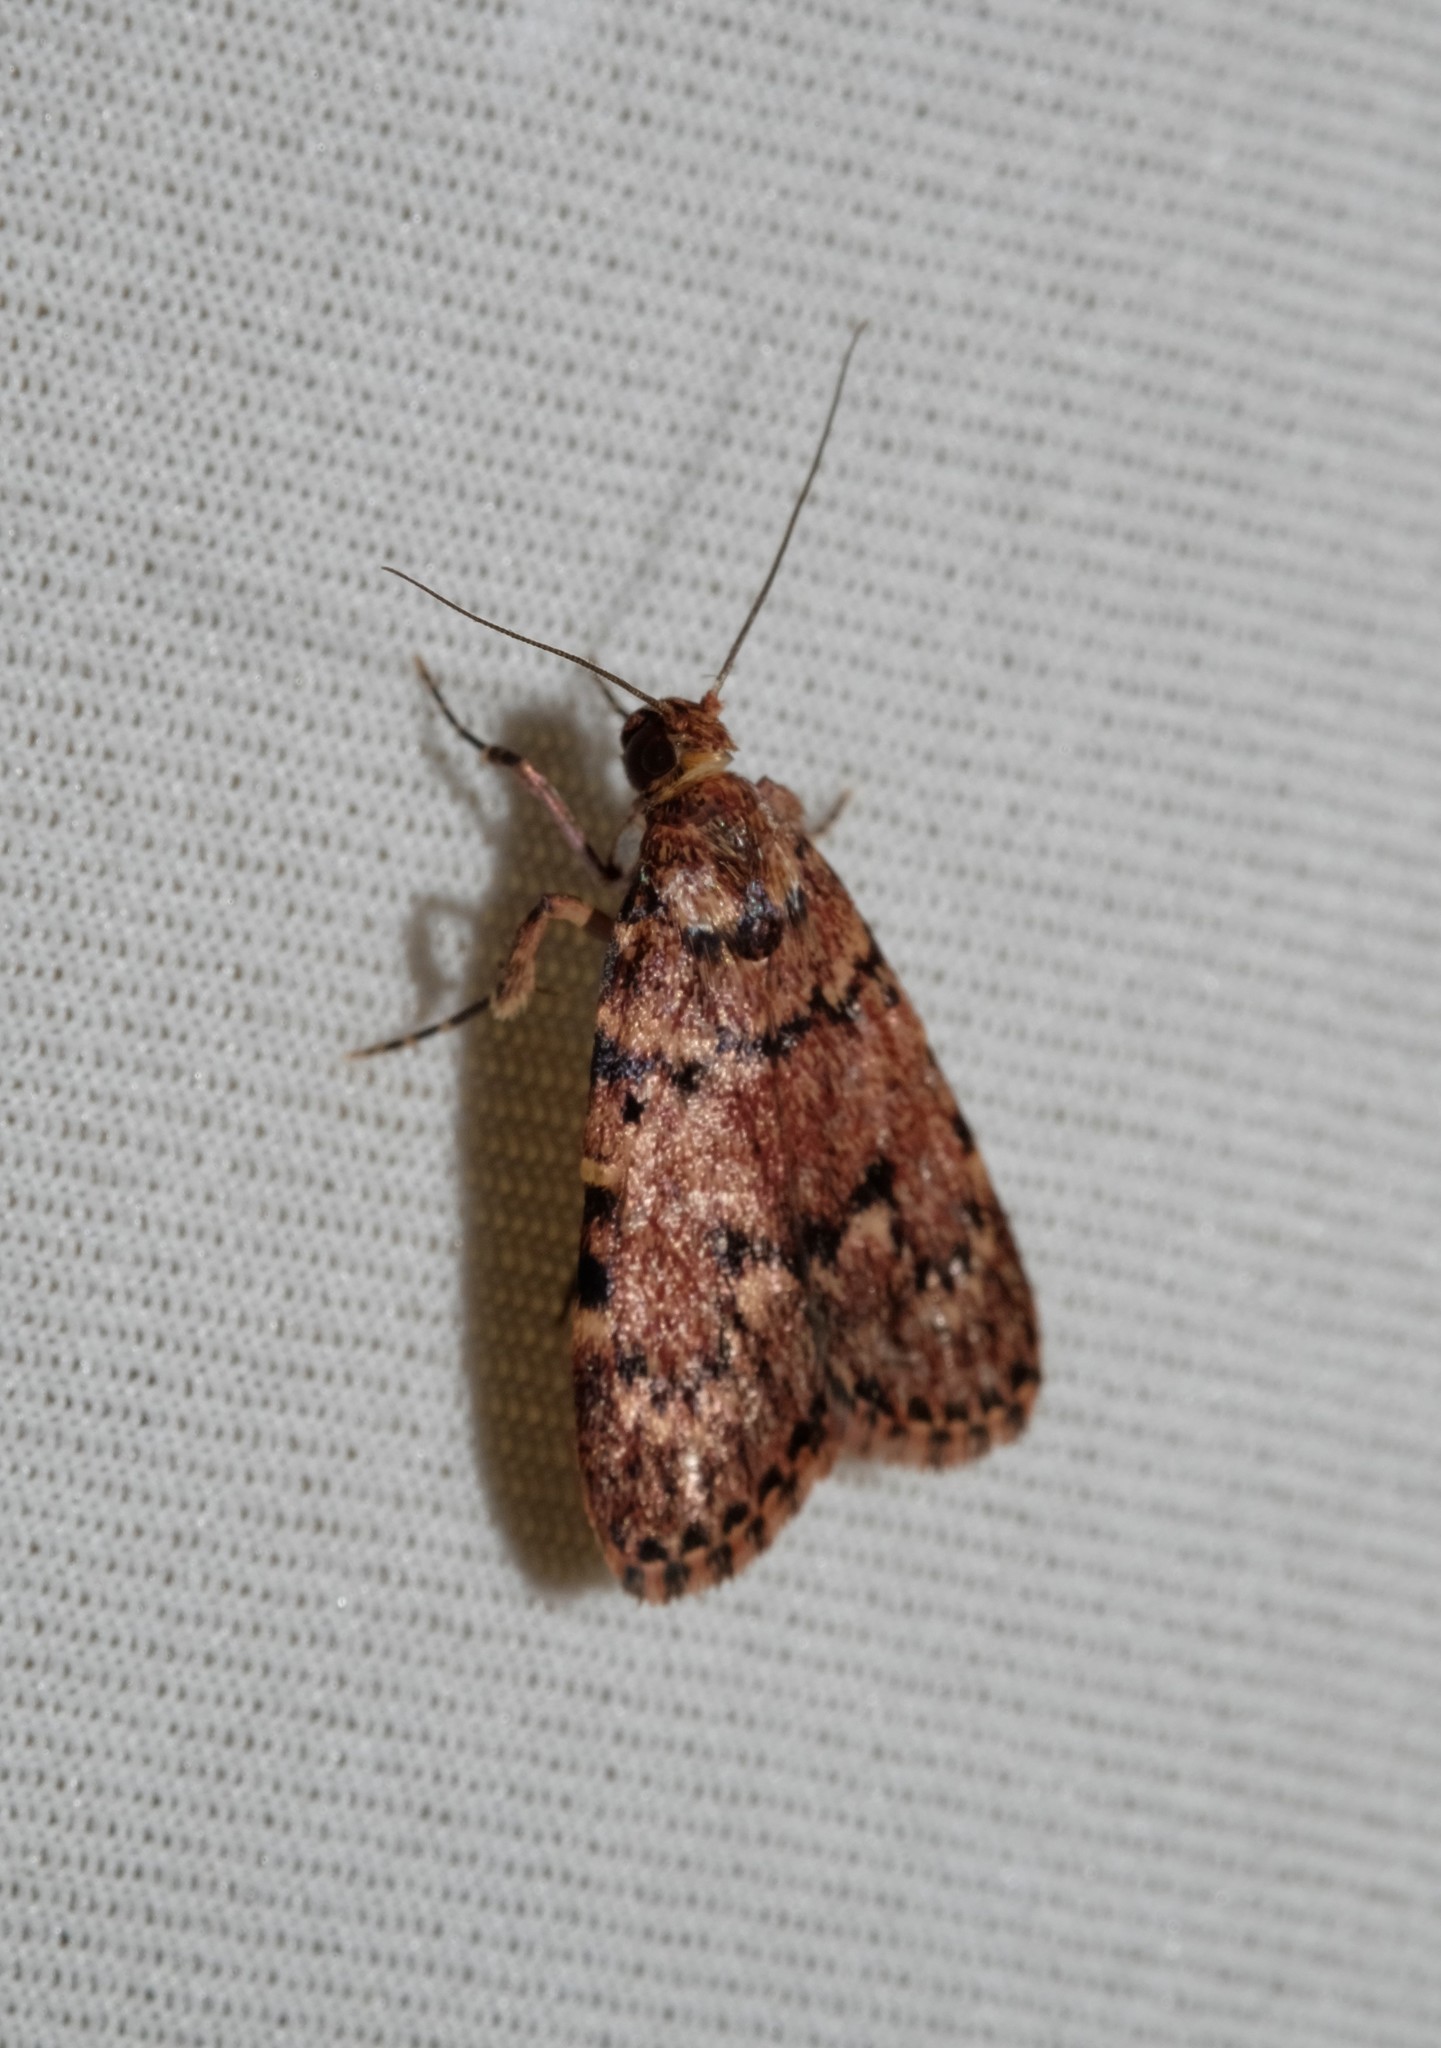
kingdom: Animalia
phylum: Arthropoda
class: Insecta
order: Lepidoptera
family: Pyralidae
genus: Mimaglossa
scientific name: Mimaglossa nauplialis
